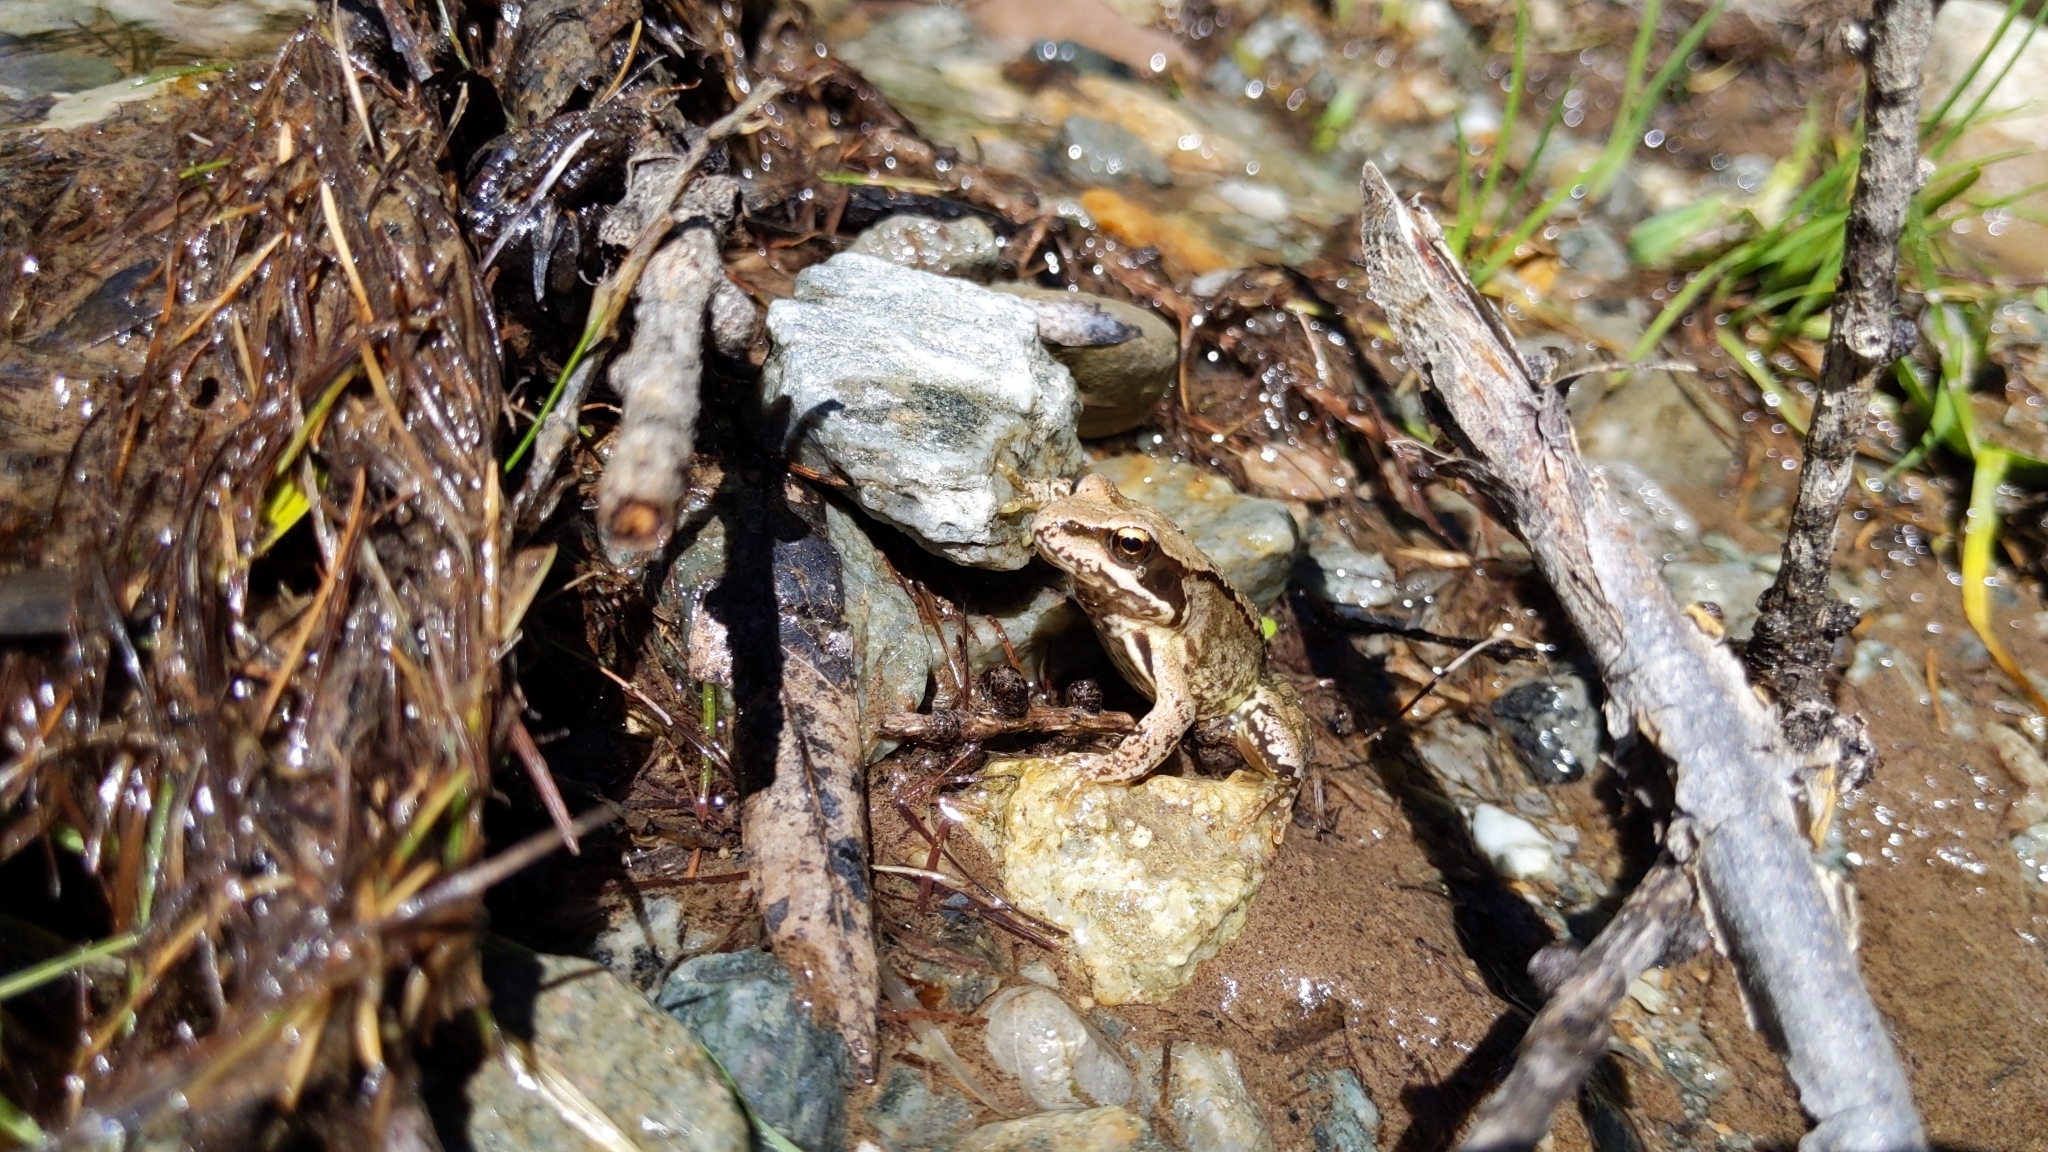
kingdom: Animalia
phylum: Chordata
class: Amphibia
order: Anura
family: Ranidae
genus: Rana
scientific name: Rana temporaria
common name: Common frog
